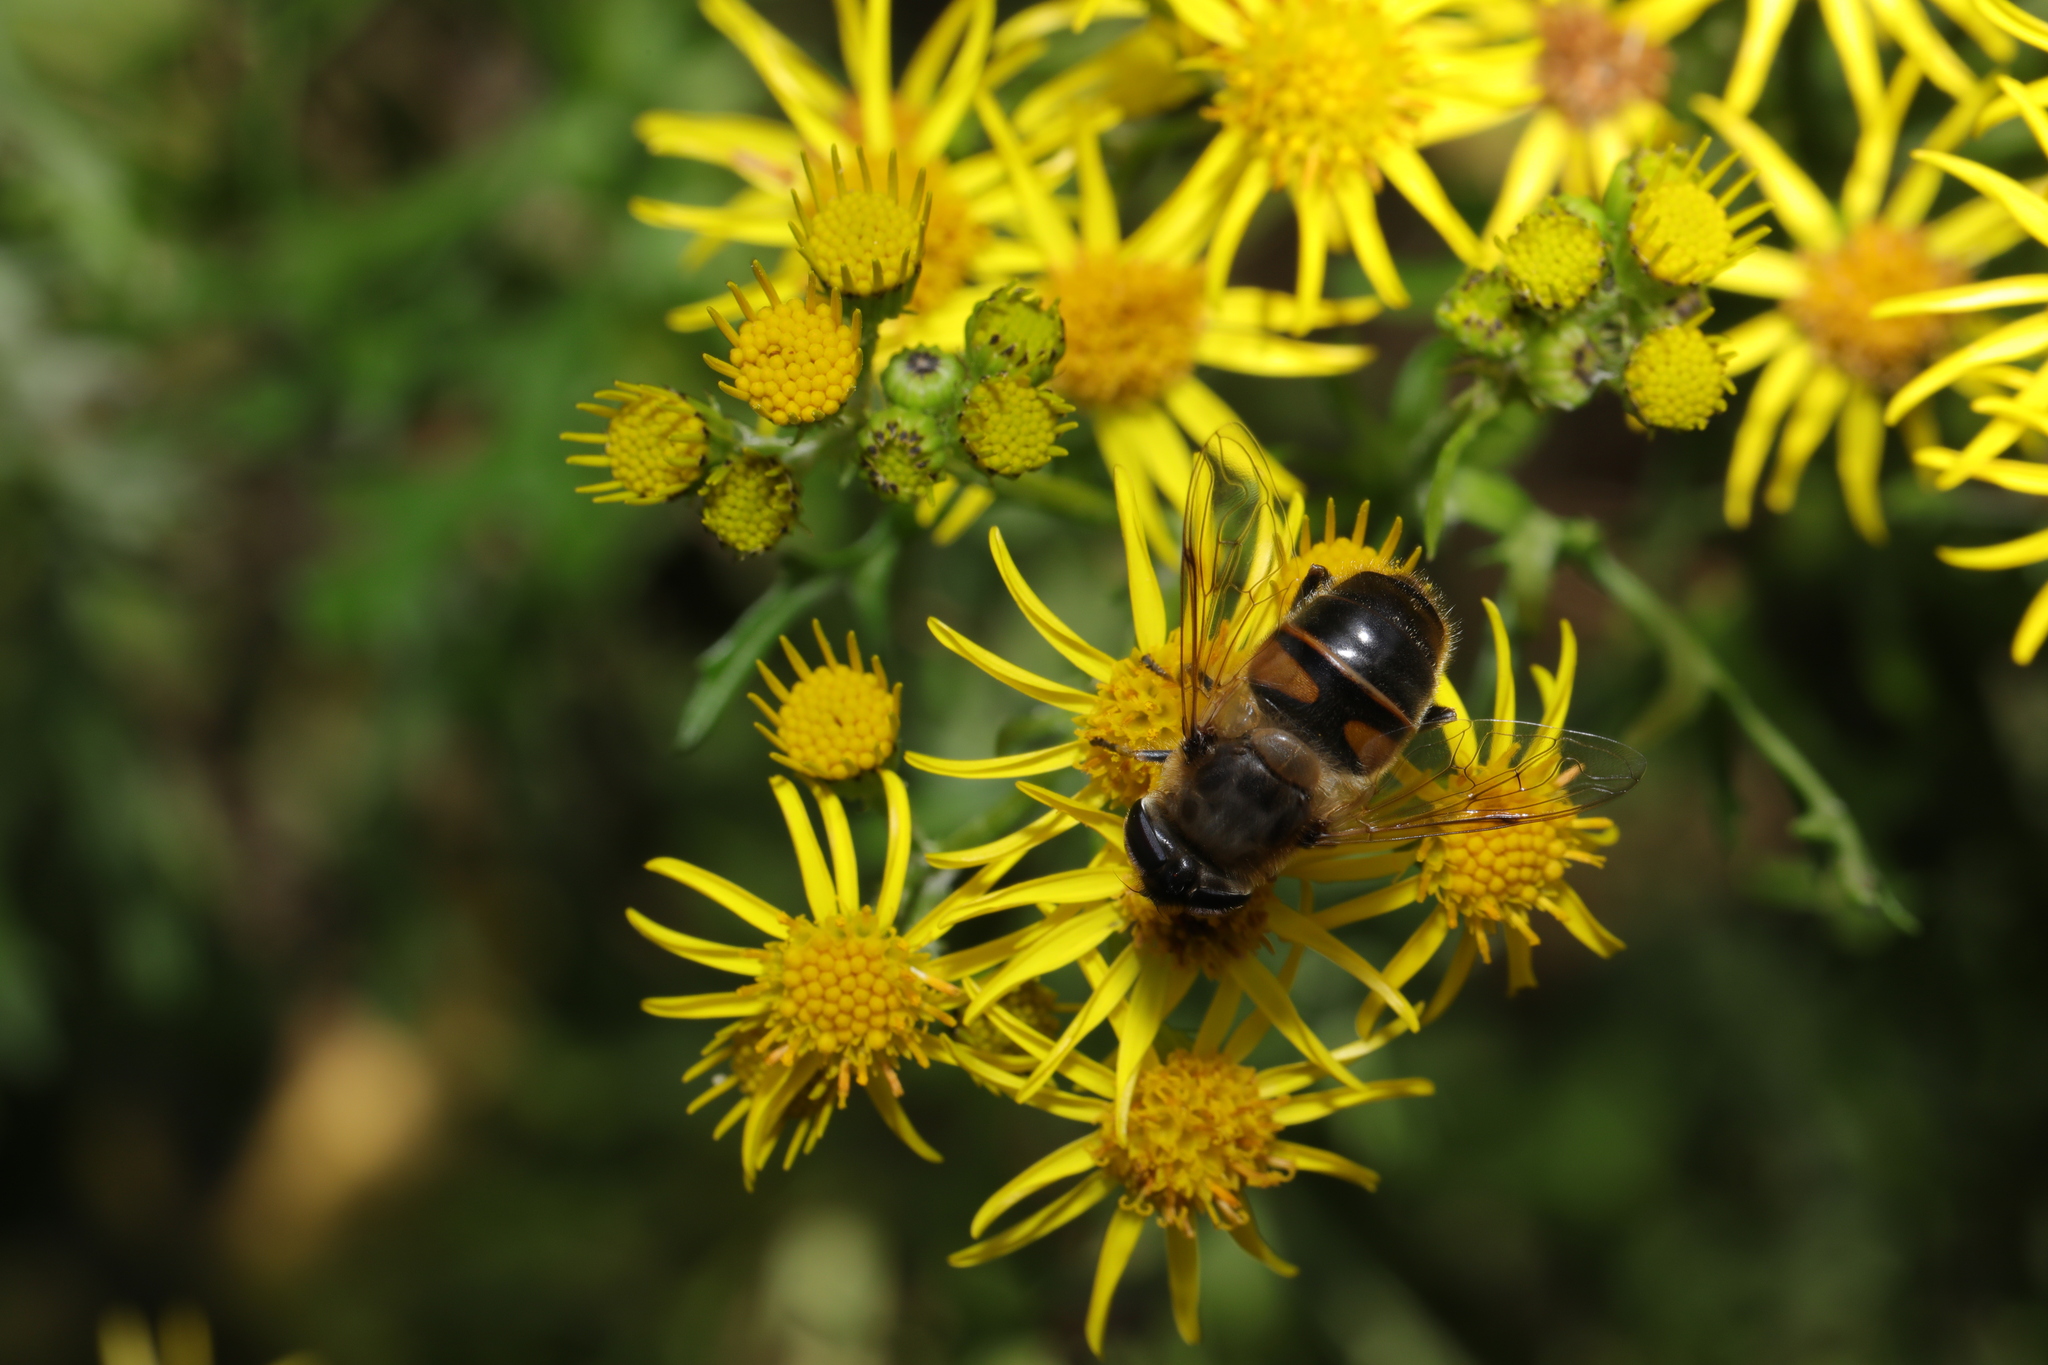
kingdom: Animalia
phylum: Arthropoda
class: Insecta
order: Diptera
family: Syrphidae
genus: Eristalis
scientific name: Eristalis tenax
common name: Drone fly
